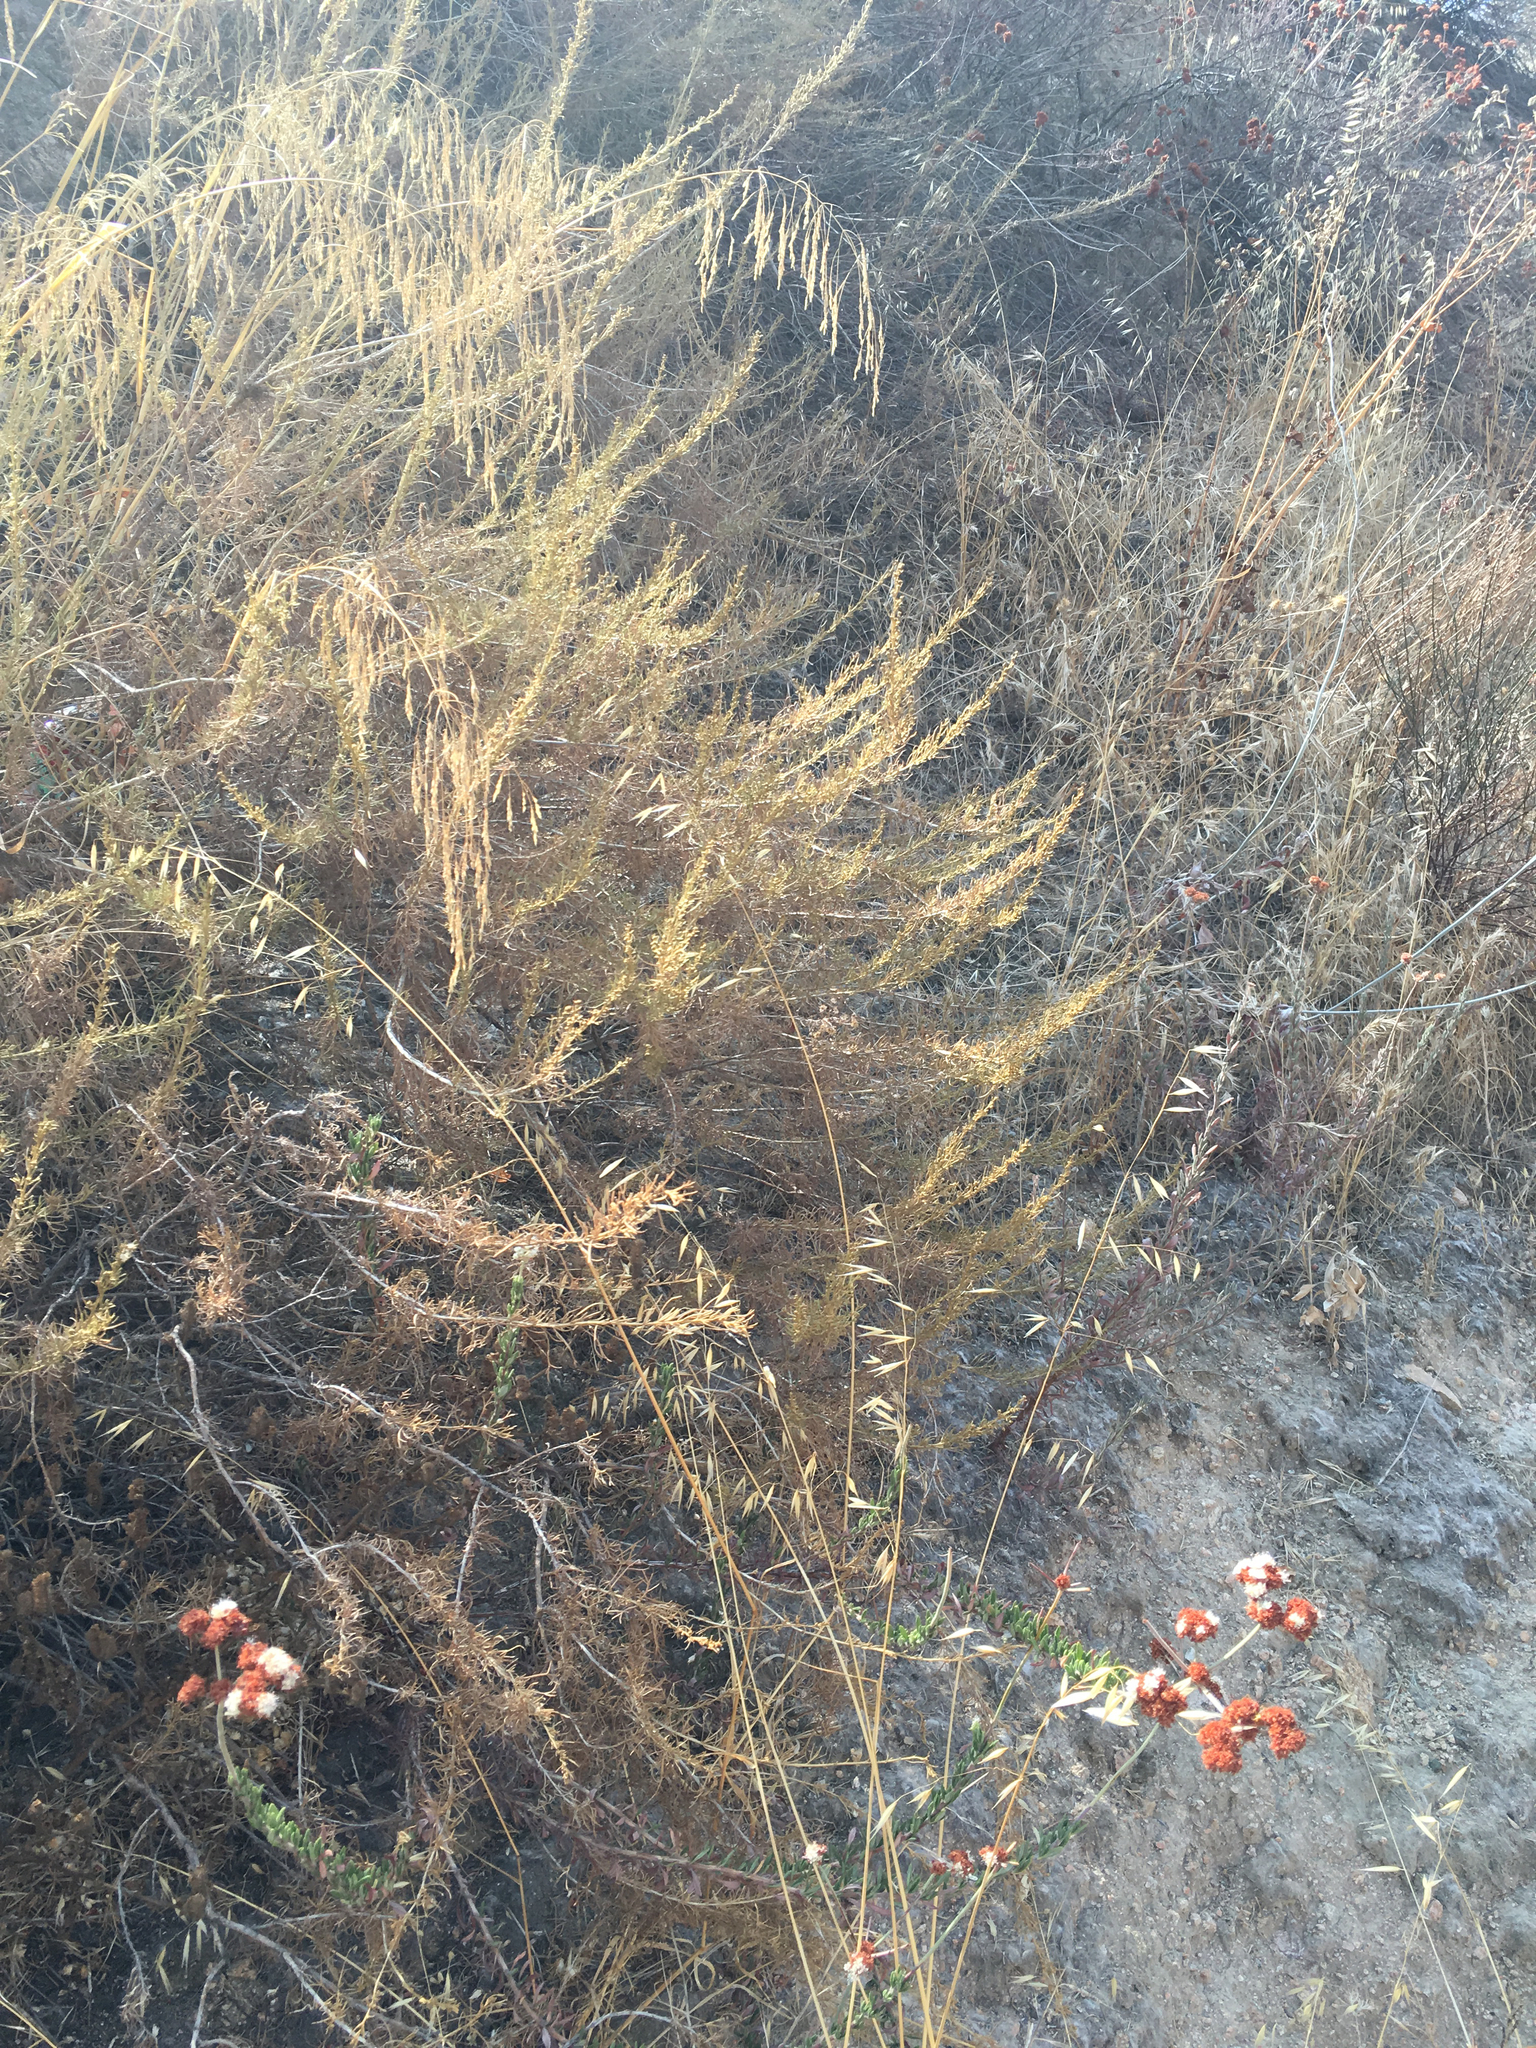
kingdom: Plantae
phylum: Tracheophyta
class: Magnoliopsida
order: Asterales
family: Asteraceae
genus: Artemisia
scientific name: Artemisia californica
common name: California sagebrush
